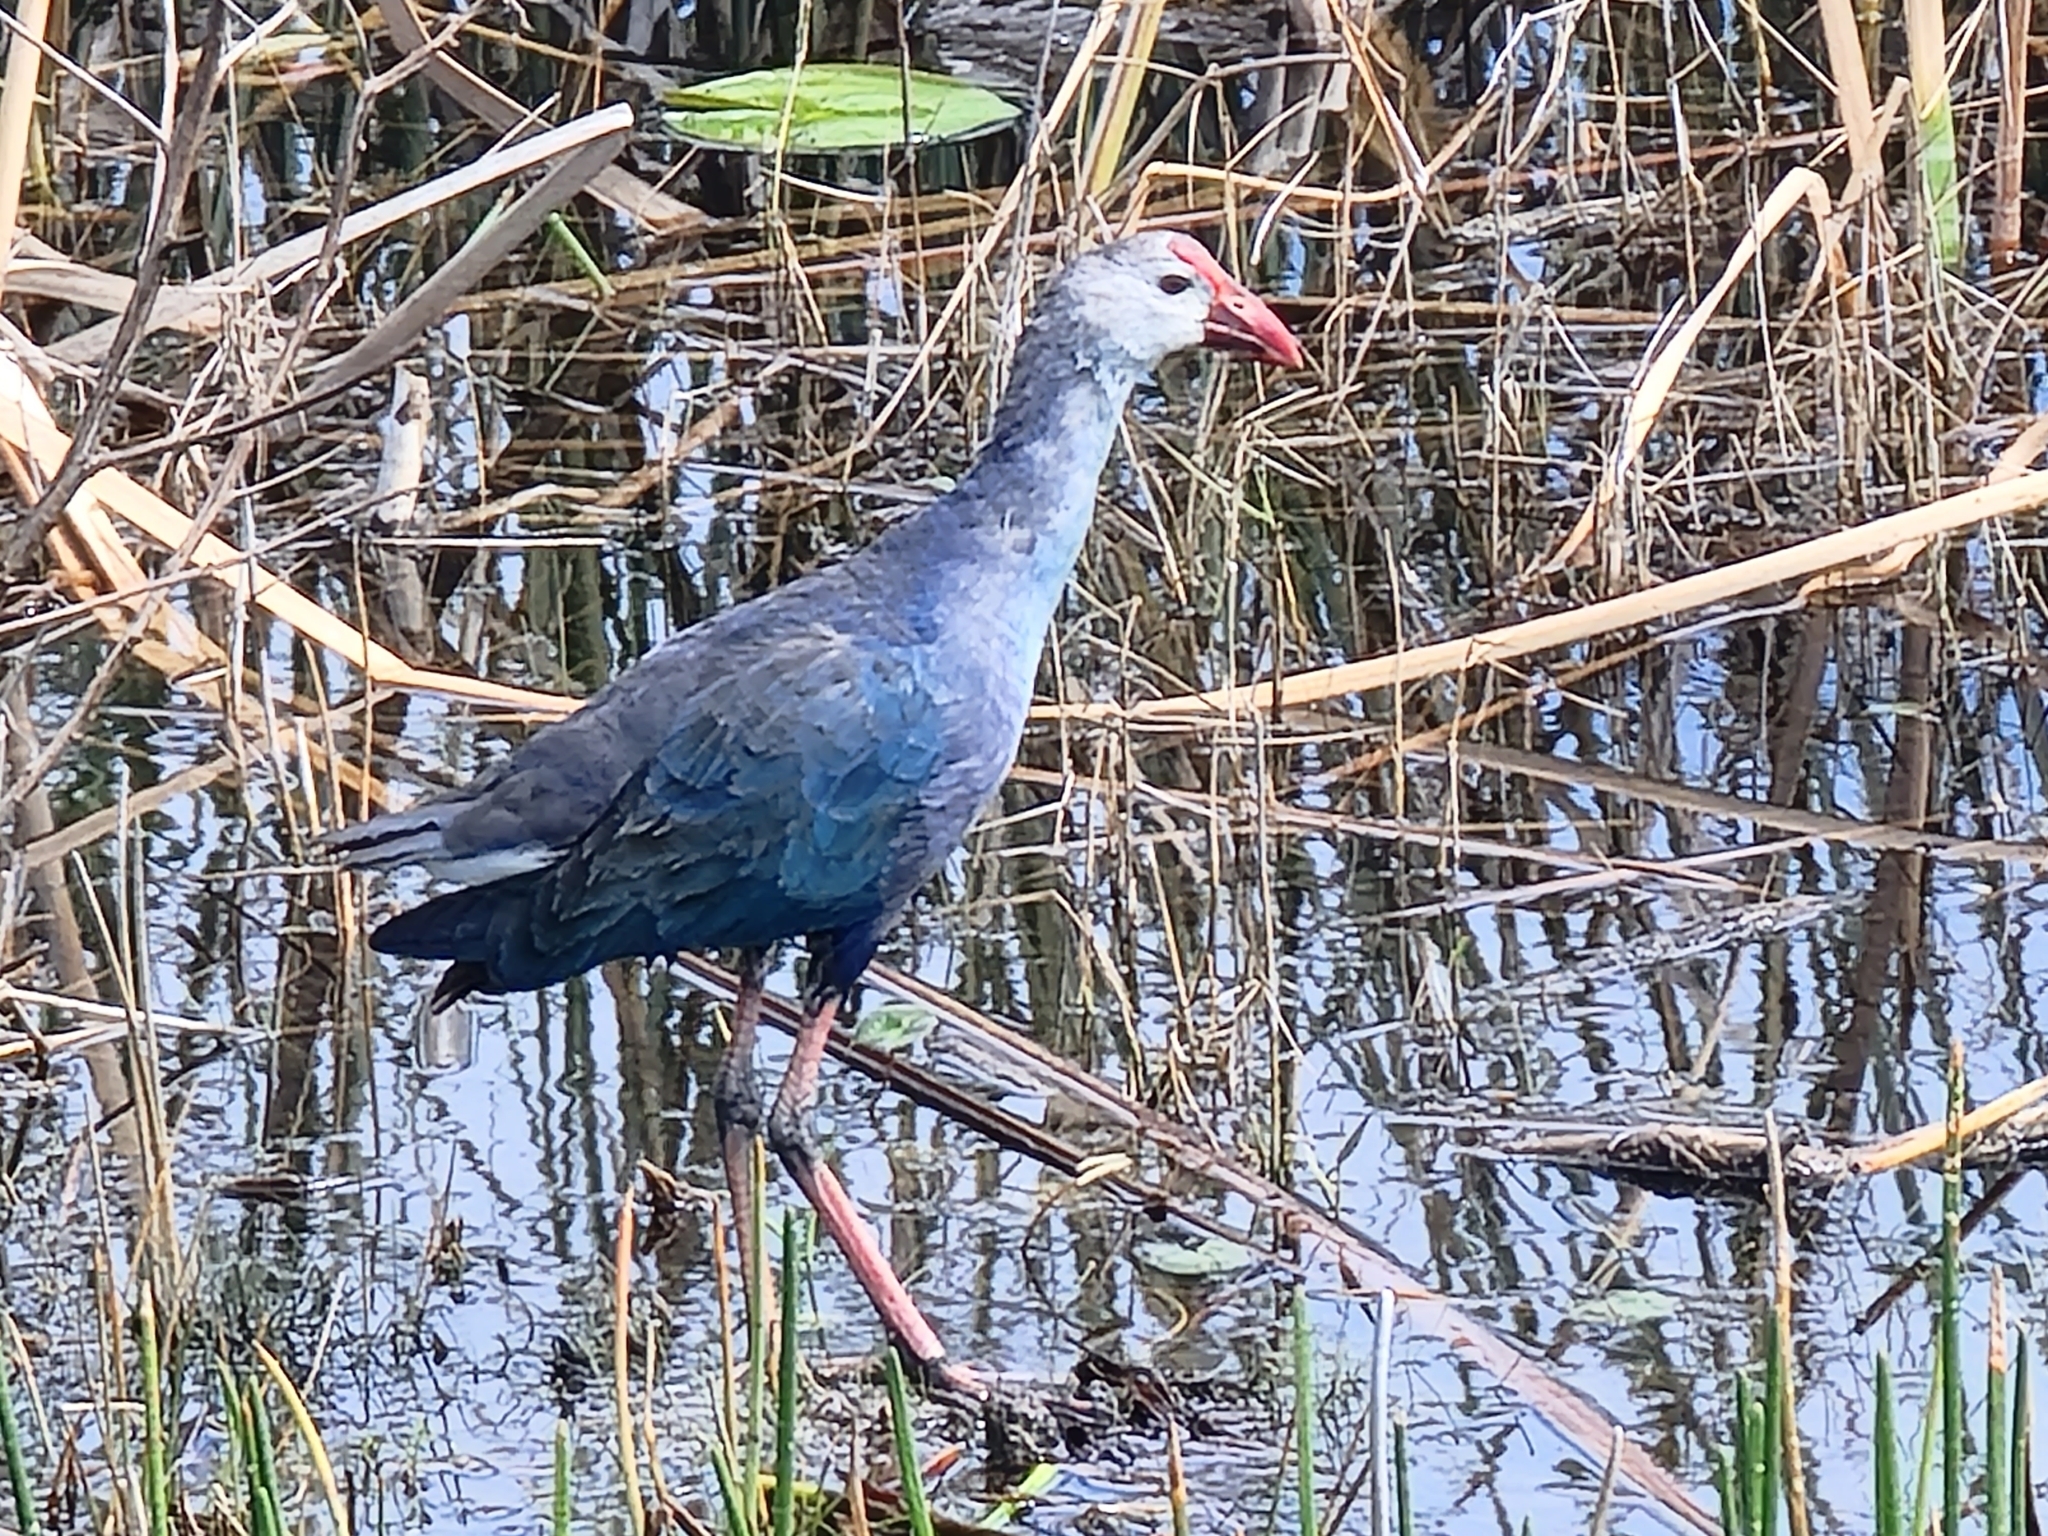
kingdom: Animalia
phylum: Chordata
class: Aves
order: Gruiformes
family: Rallidae
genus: Porphyrio
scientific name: Porphyrio porphyrio
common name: Purple swamphen
